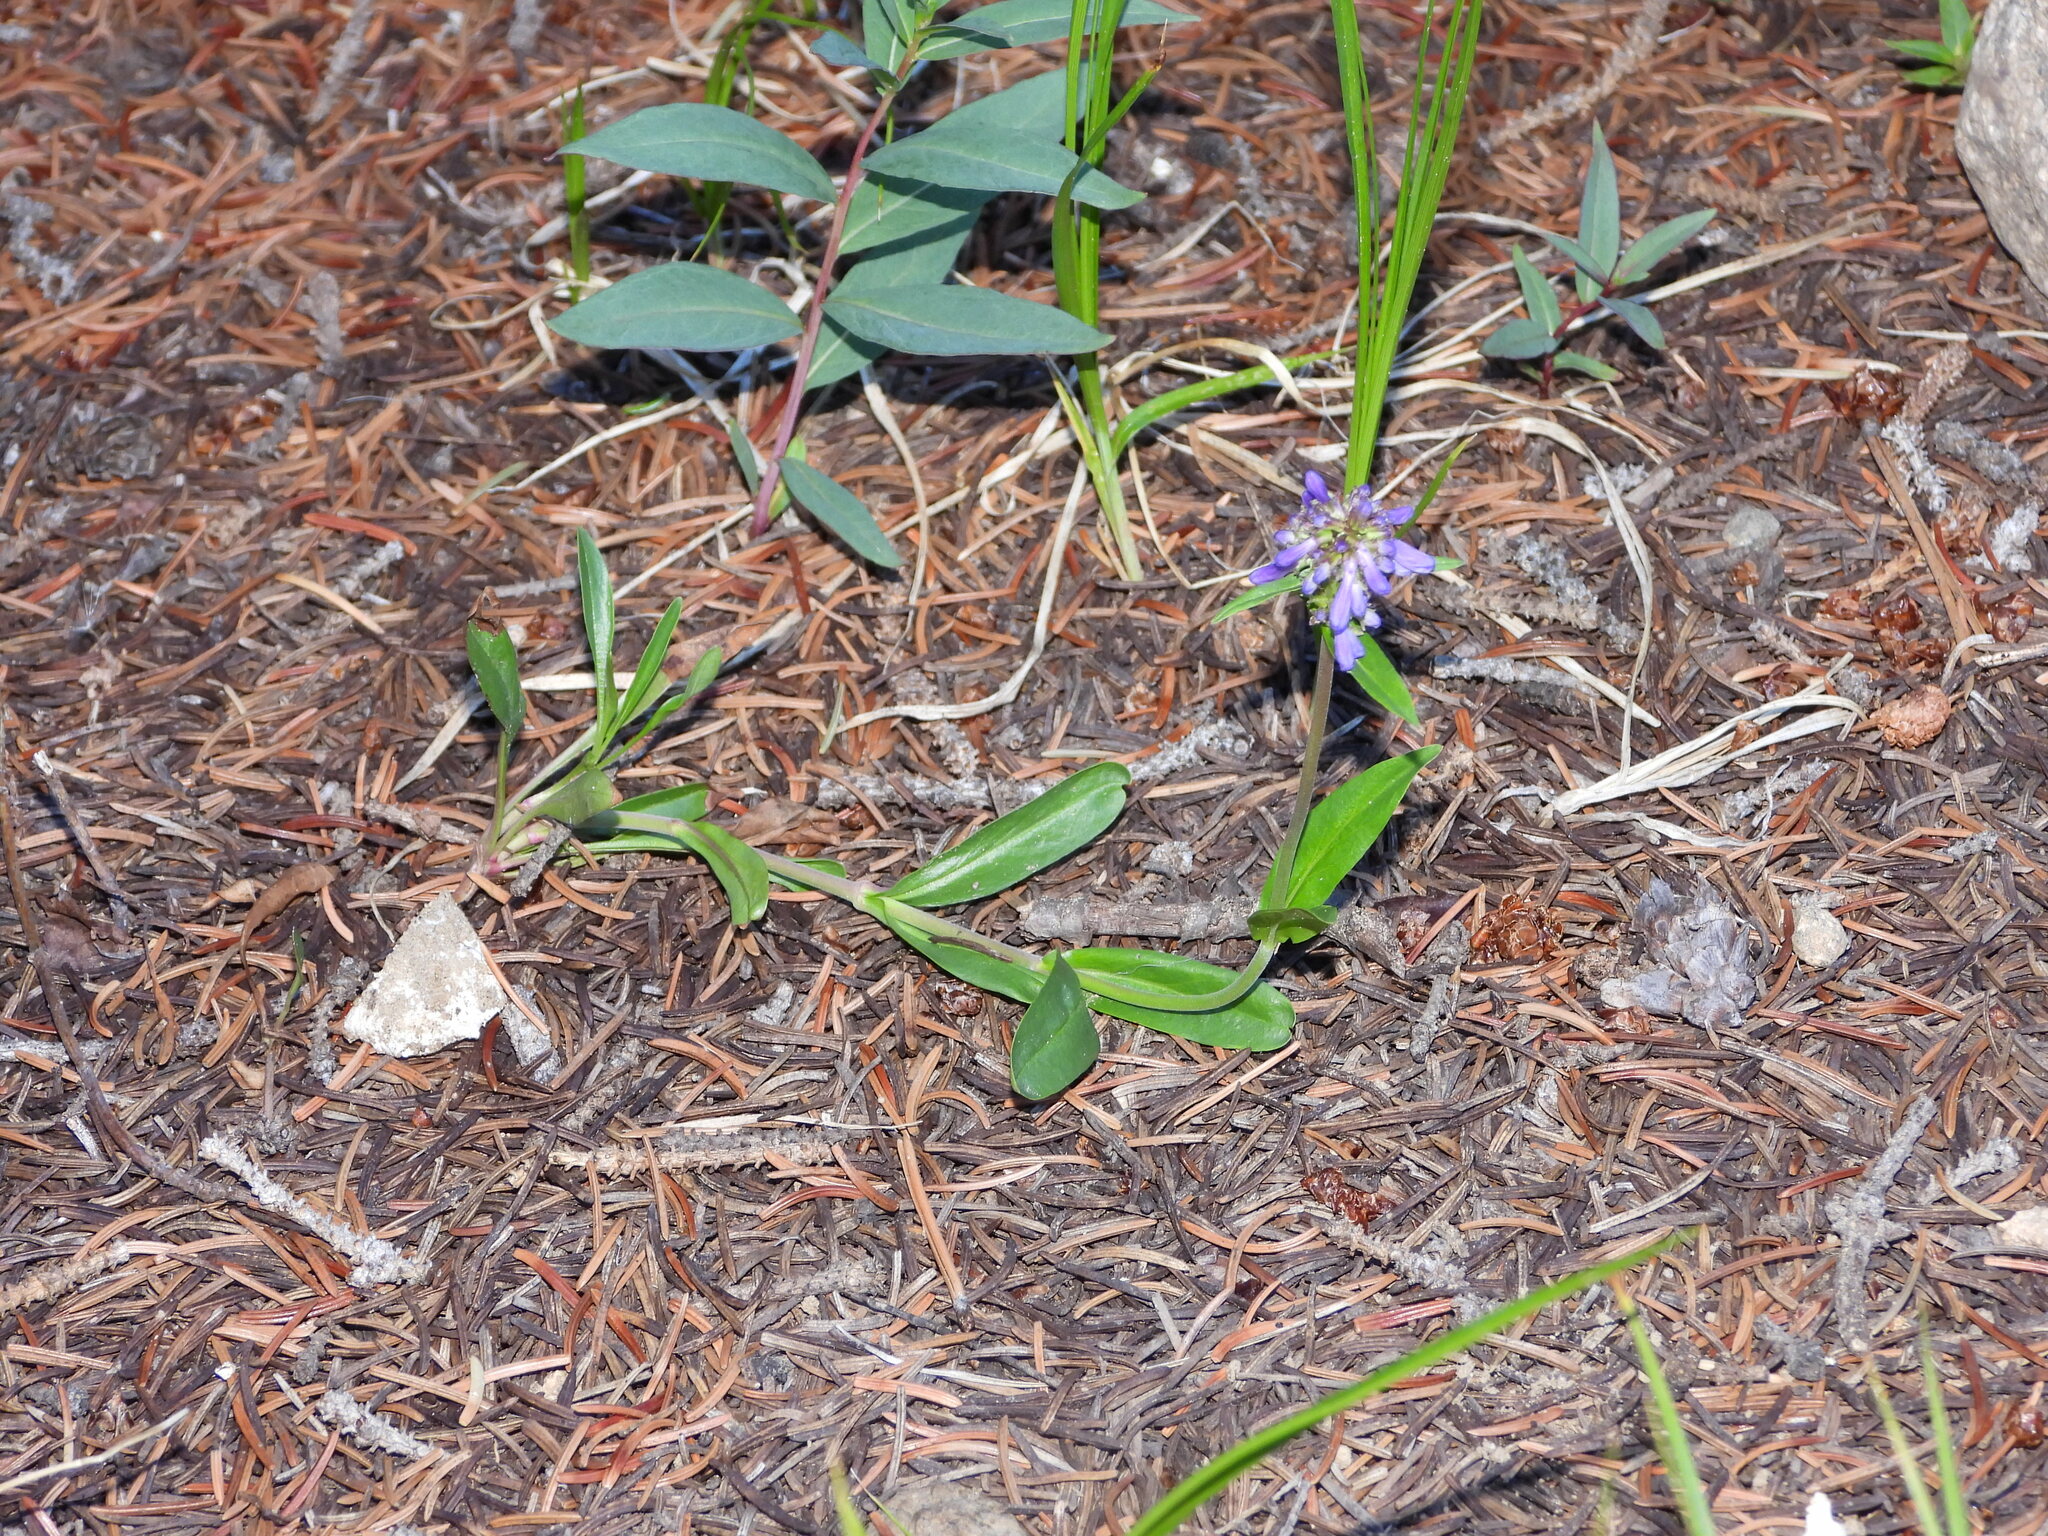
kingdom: Plantae
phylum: Tracheophyta
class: Magnoliopsida
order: Lamiales
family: Plantaginaceae
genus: Penstemon
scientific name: Penstemon rydbergii
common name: Rydberg's beardtongue
